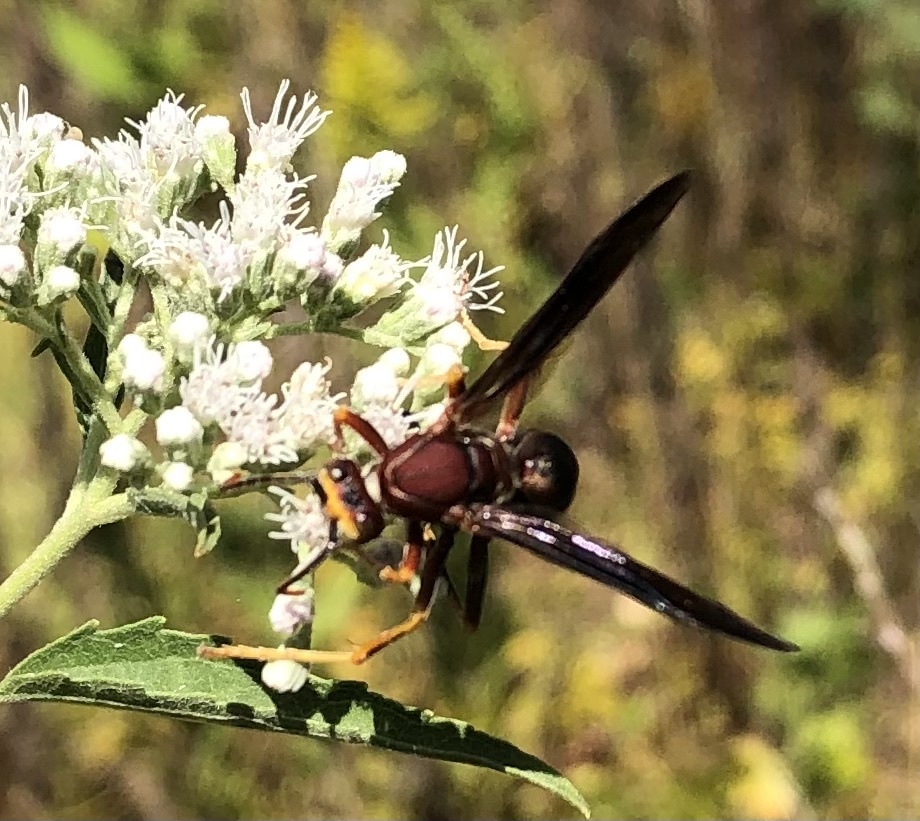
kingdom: Animalia
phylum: Arthropoda
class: Insecta
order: Hymenoptera
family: Eumenidae
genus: Polistes
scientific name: Polistes metricus
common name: Metric paper wasp
